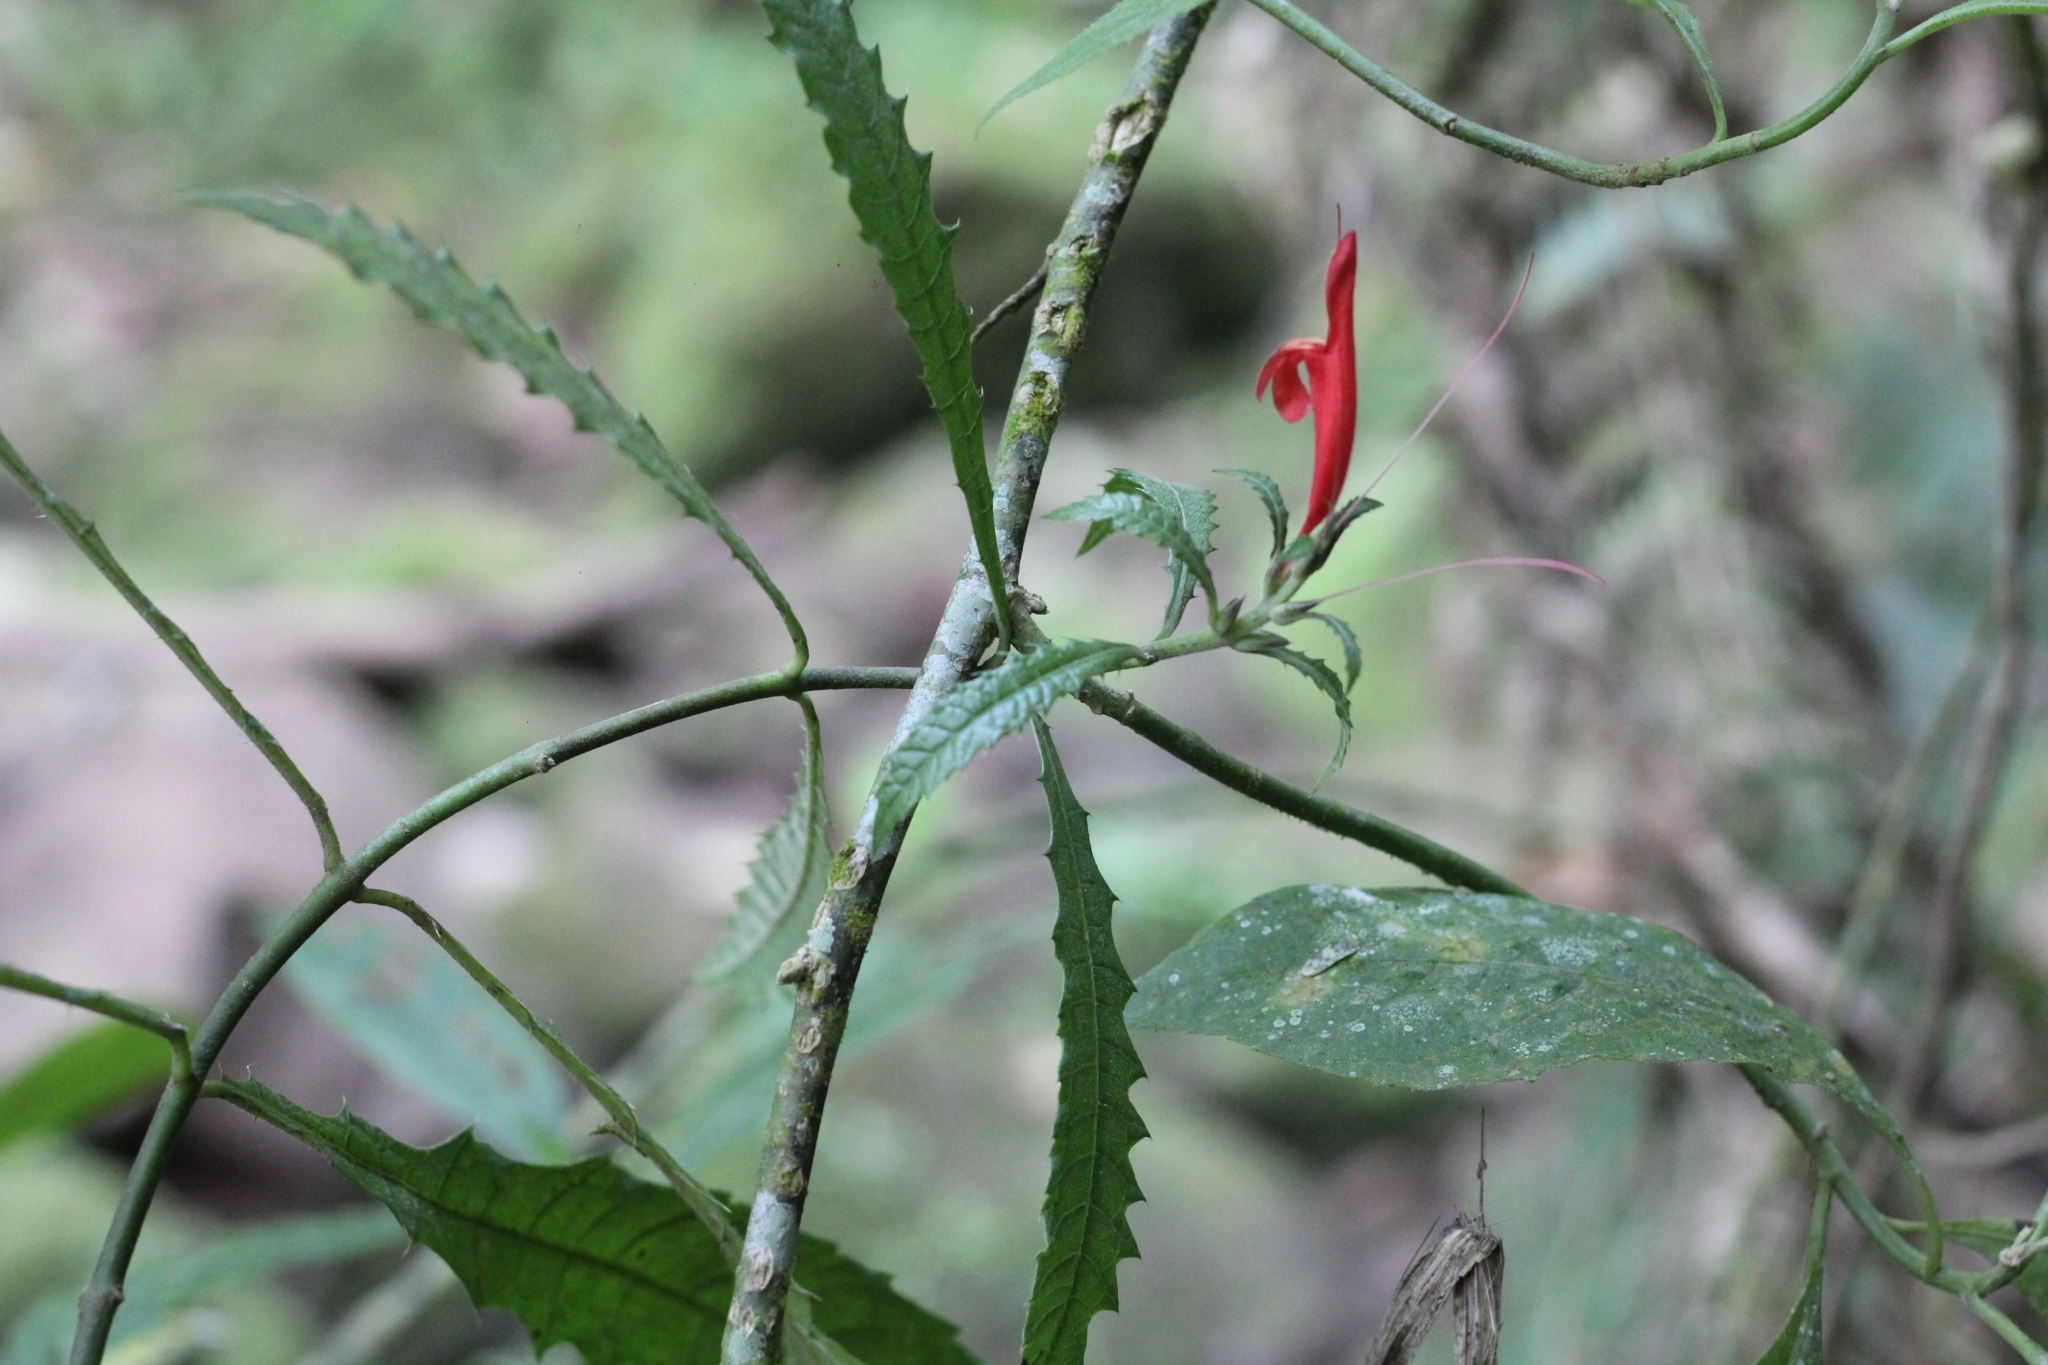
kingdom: Plantae
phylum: Tracheophyta
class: Magnoliopsida
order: Lamiales
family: Acanthaceae
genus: Aphelandra
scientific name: Aphelandra hieronymi
